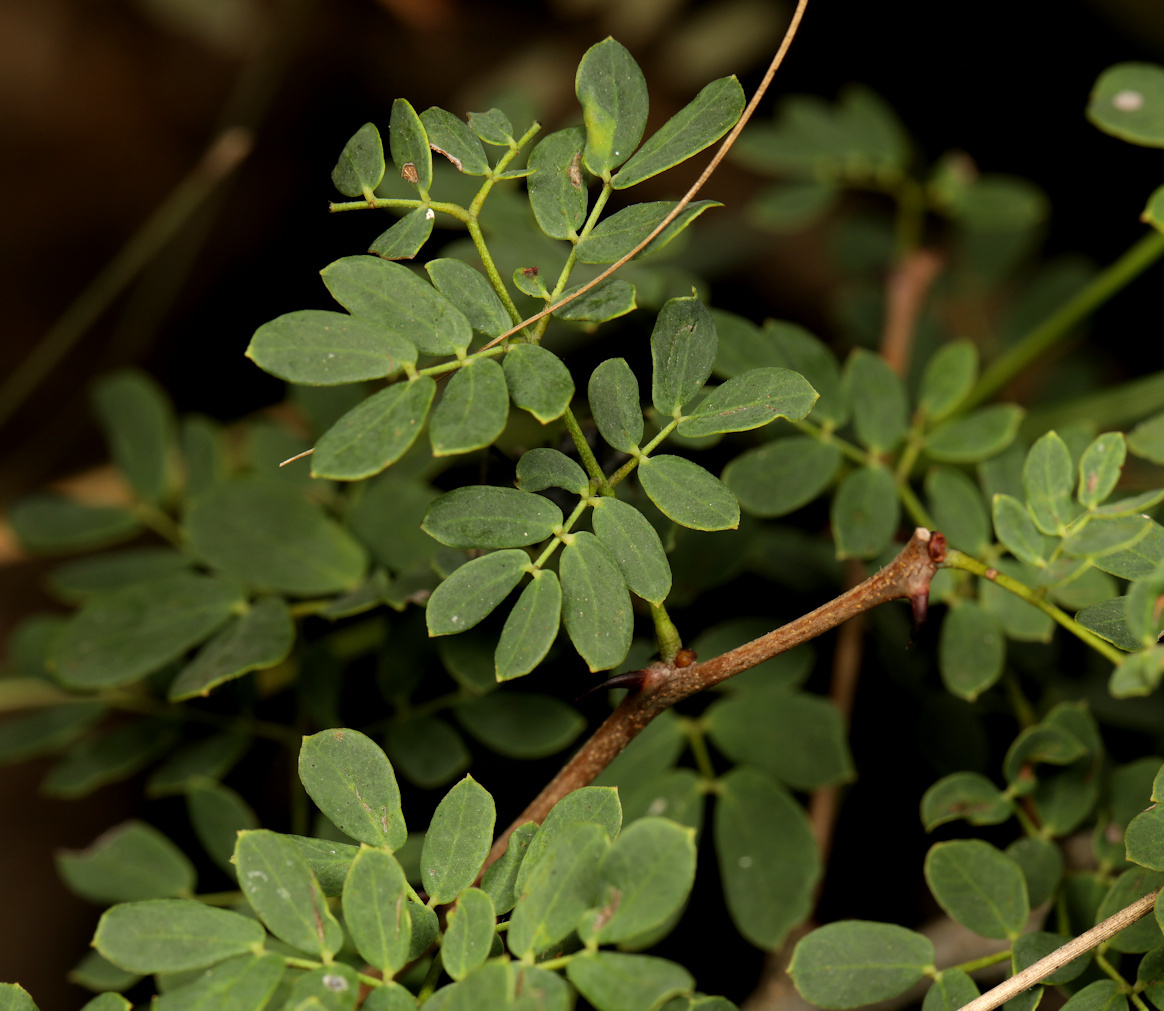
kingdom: Plantae
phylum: Tracheophyta
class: Magnoliopsida
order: Fabales
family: Fabaceae
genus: Senegalia
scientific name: Senegalia burkei
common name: Black monkey thorn
